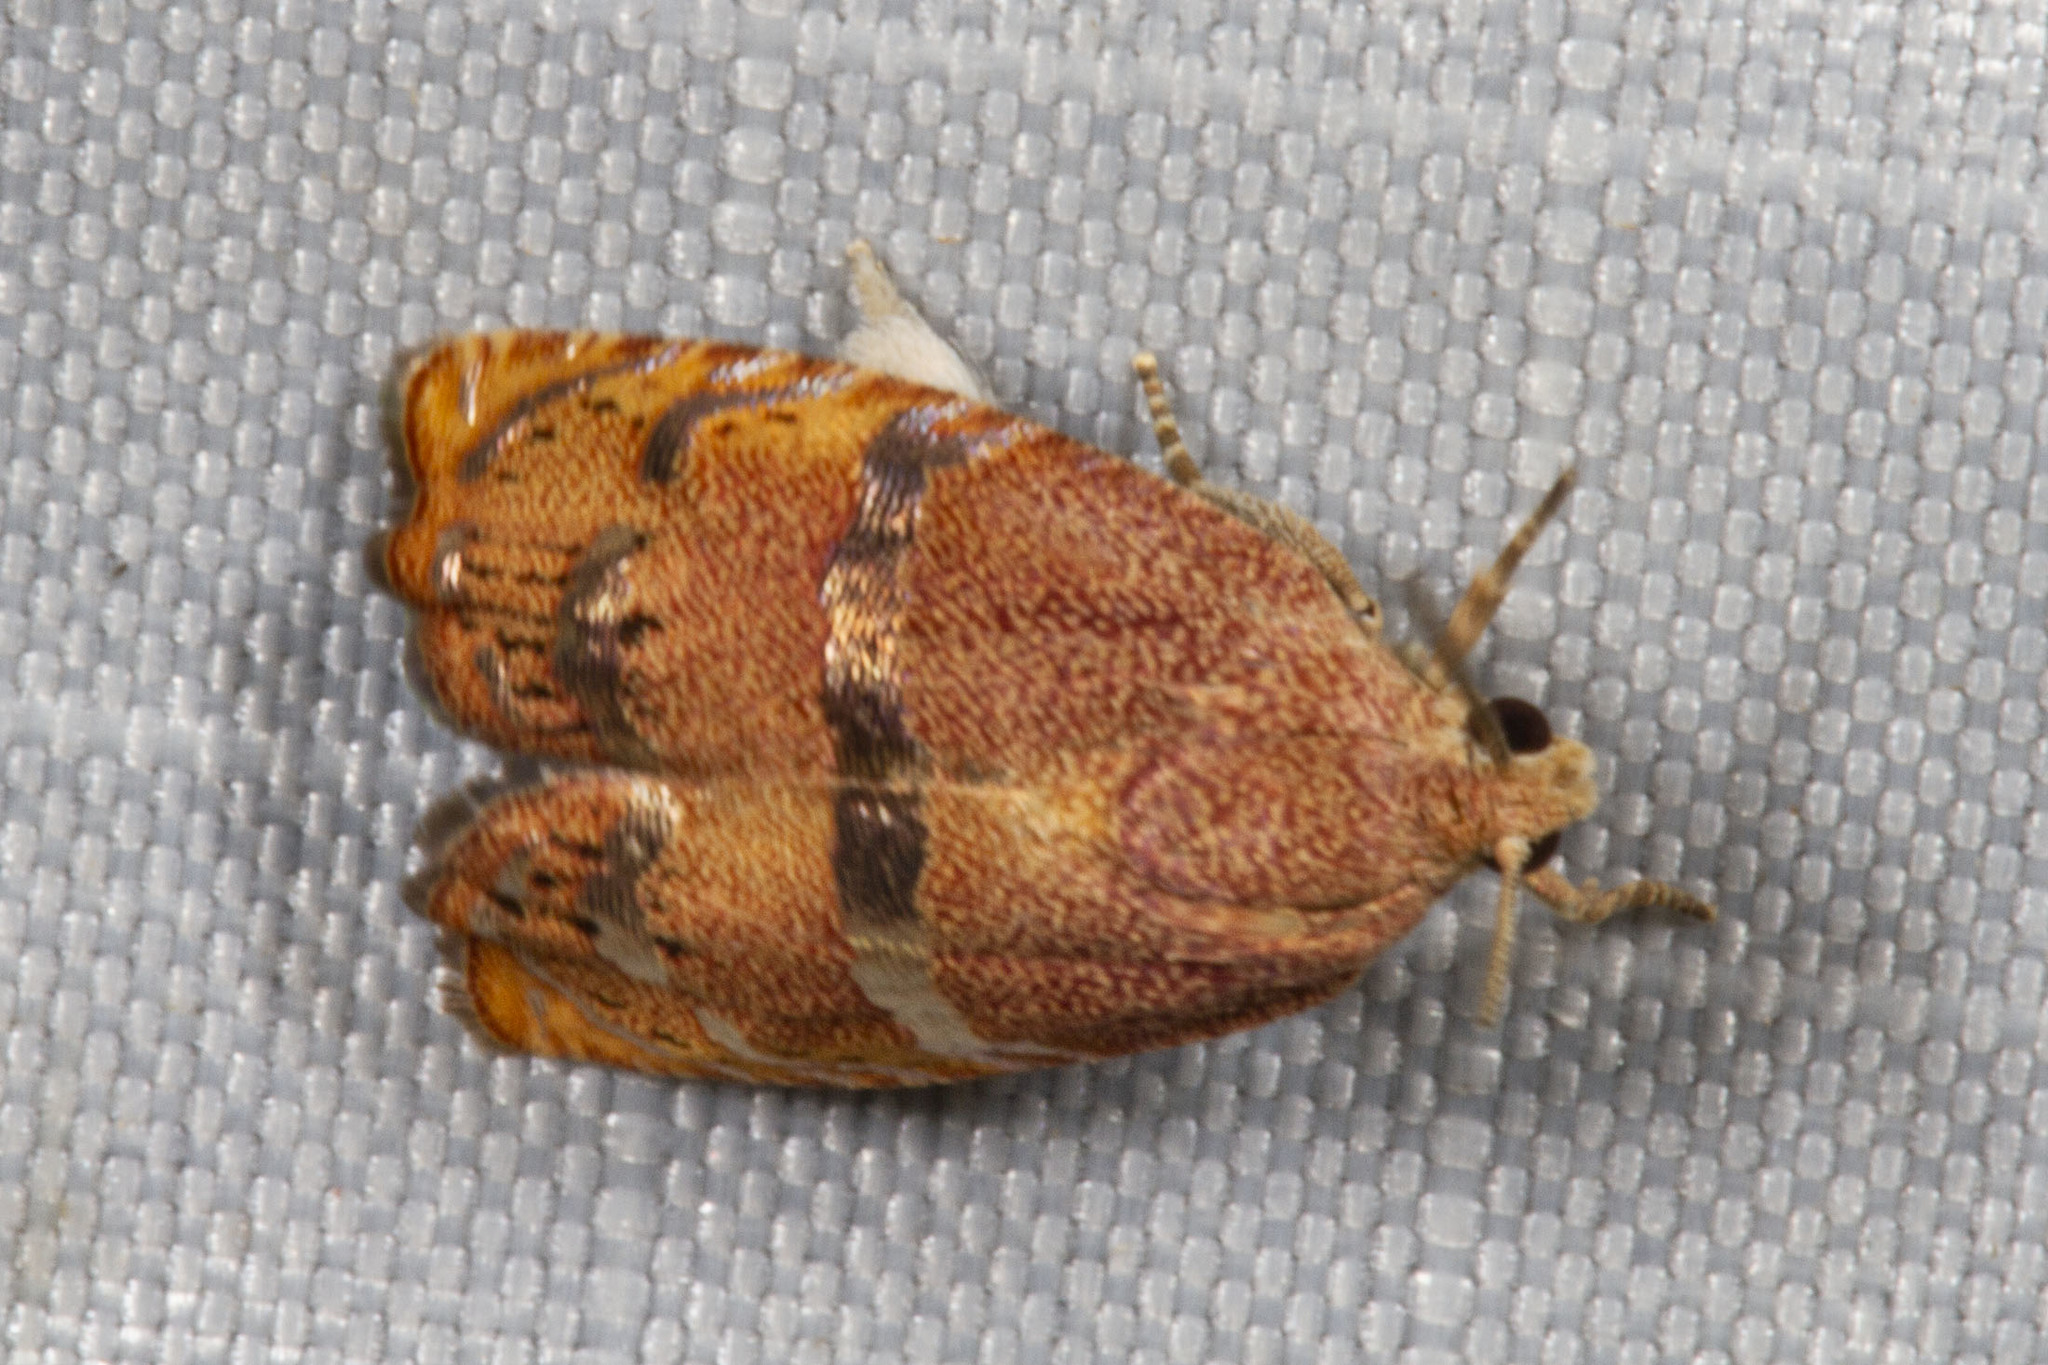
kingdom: Animalia
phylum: Arthropoda
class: Insecta
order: Lepidoptera
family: Tortricidae
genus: Cydia
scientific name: Cydia latiferreana
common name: Filbertworm moth
